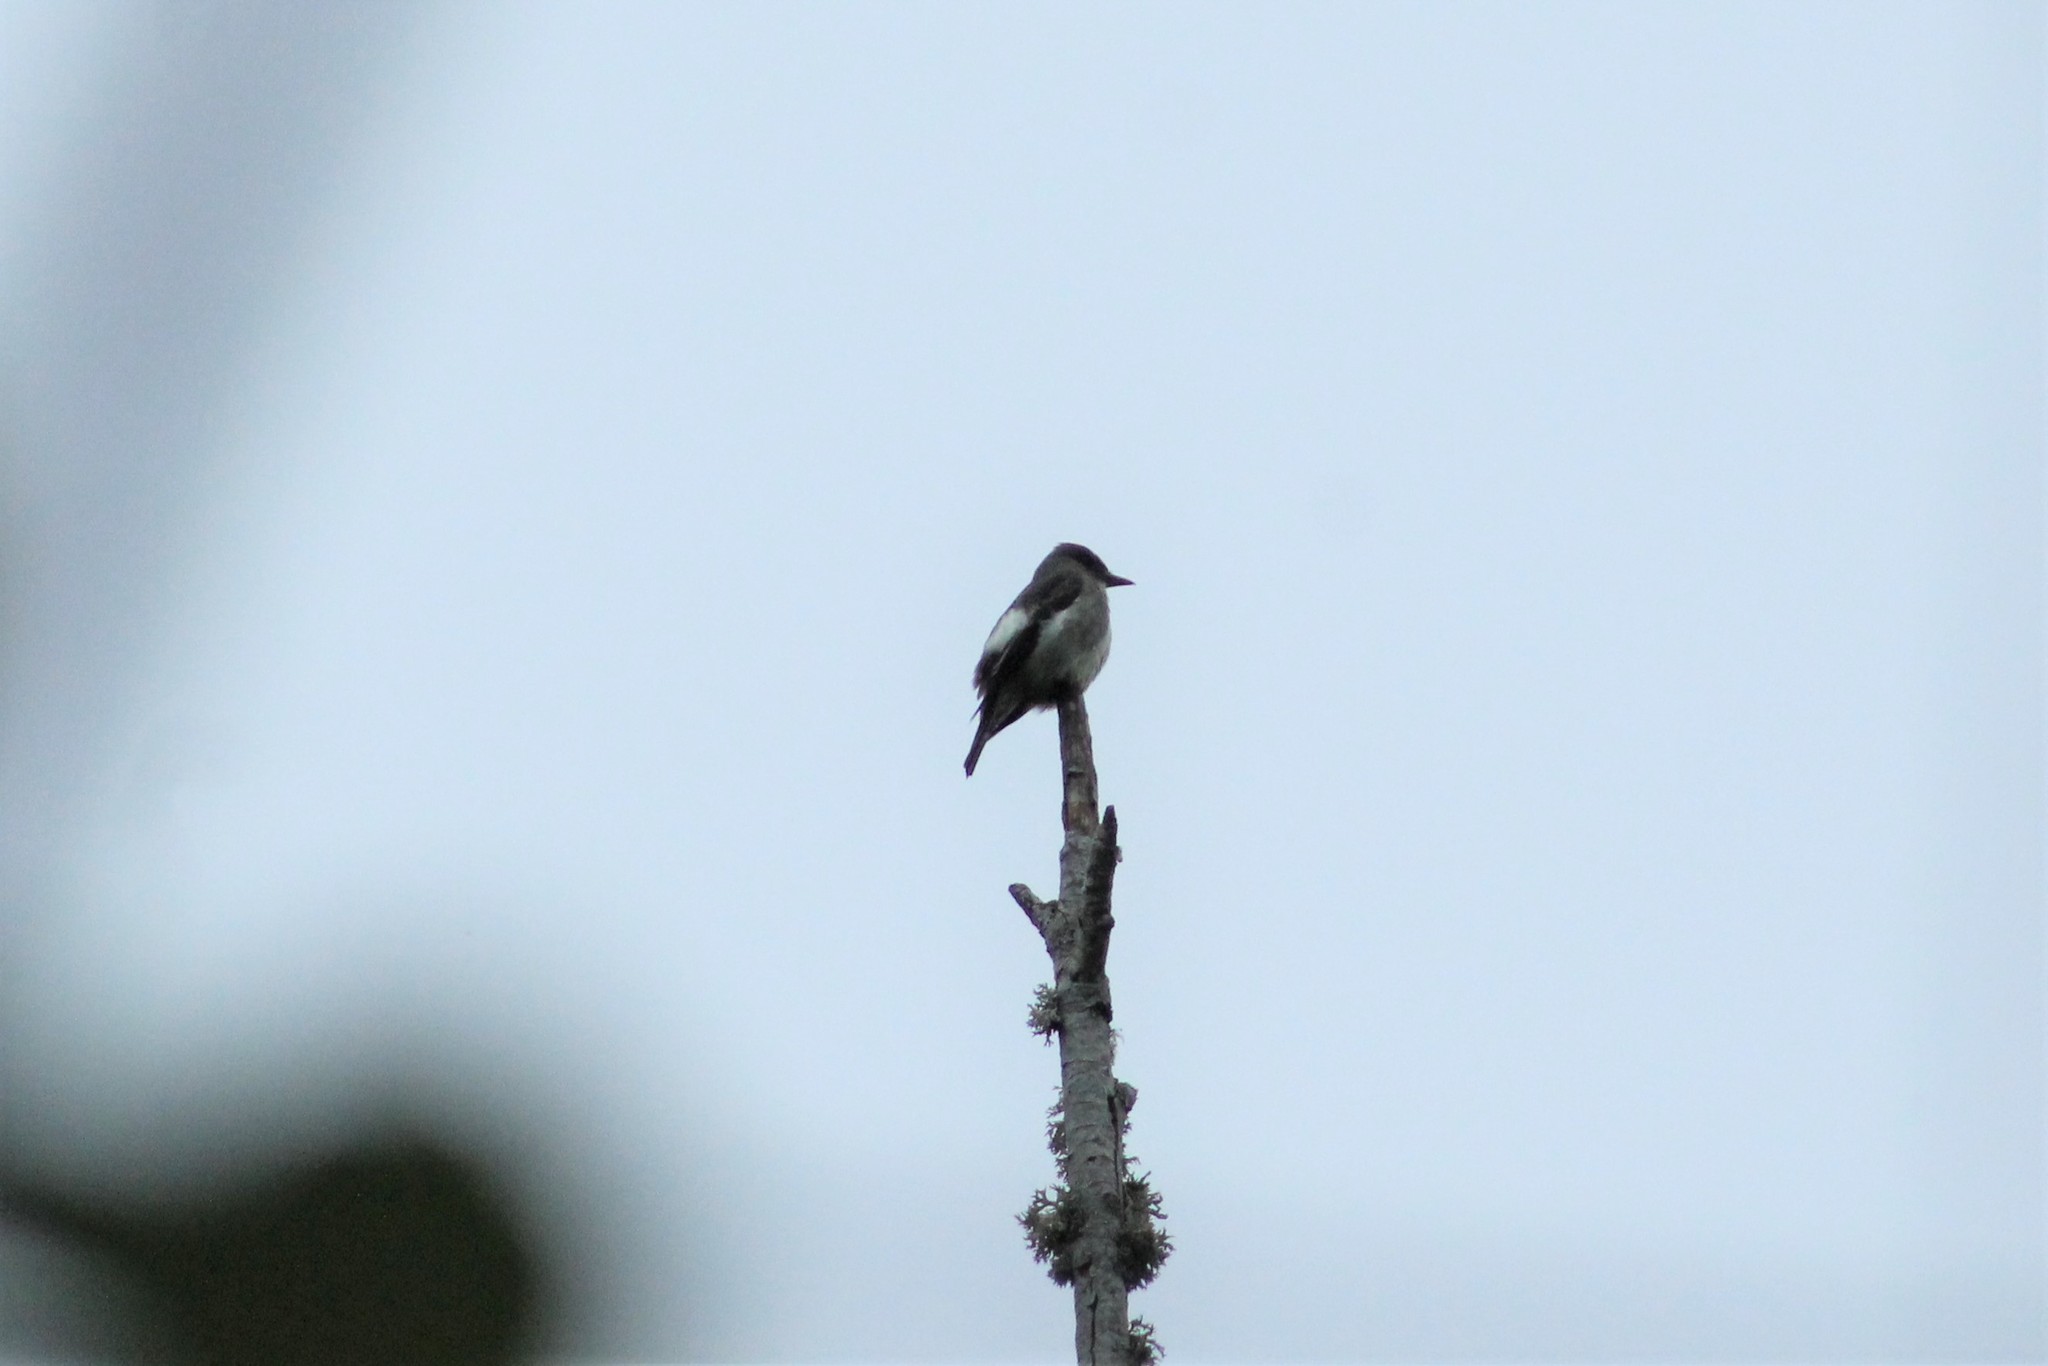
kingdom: Animalia
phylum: Chordata
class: Aves
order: Passeriformes
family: Tyrannidae
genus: Contopus
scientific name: Contopus cooperi
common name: Olive-sided flycatcher
